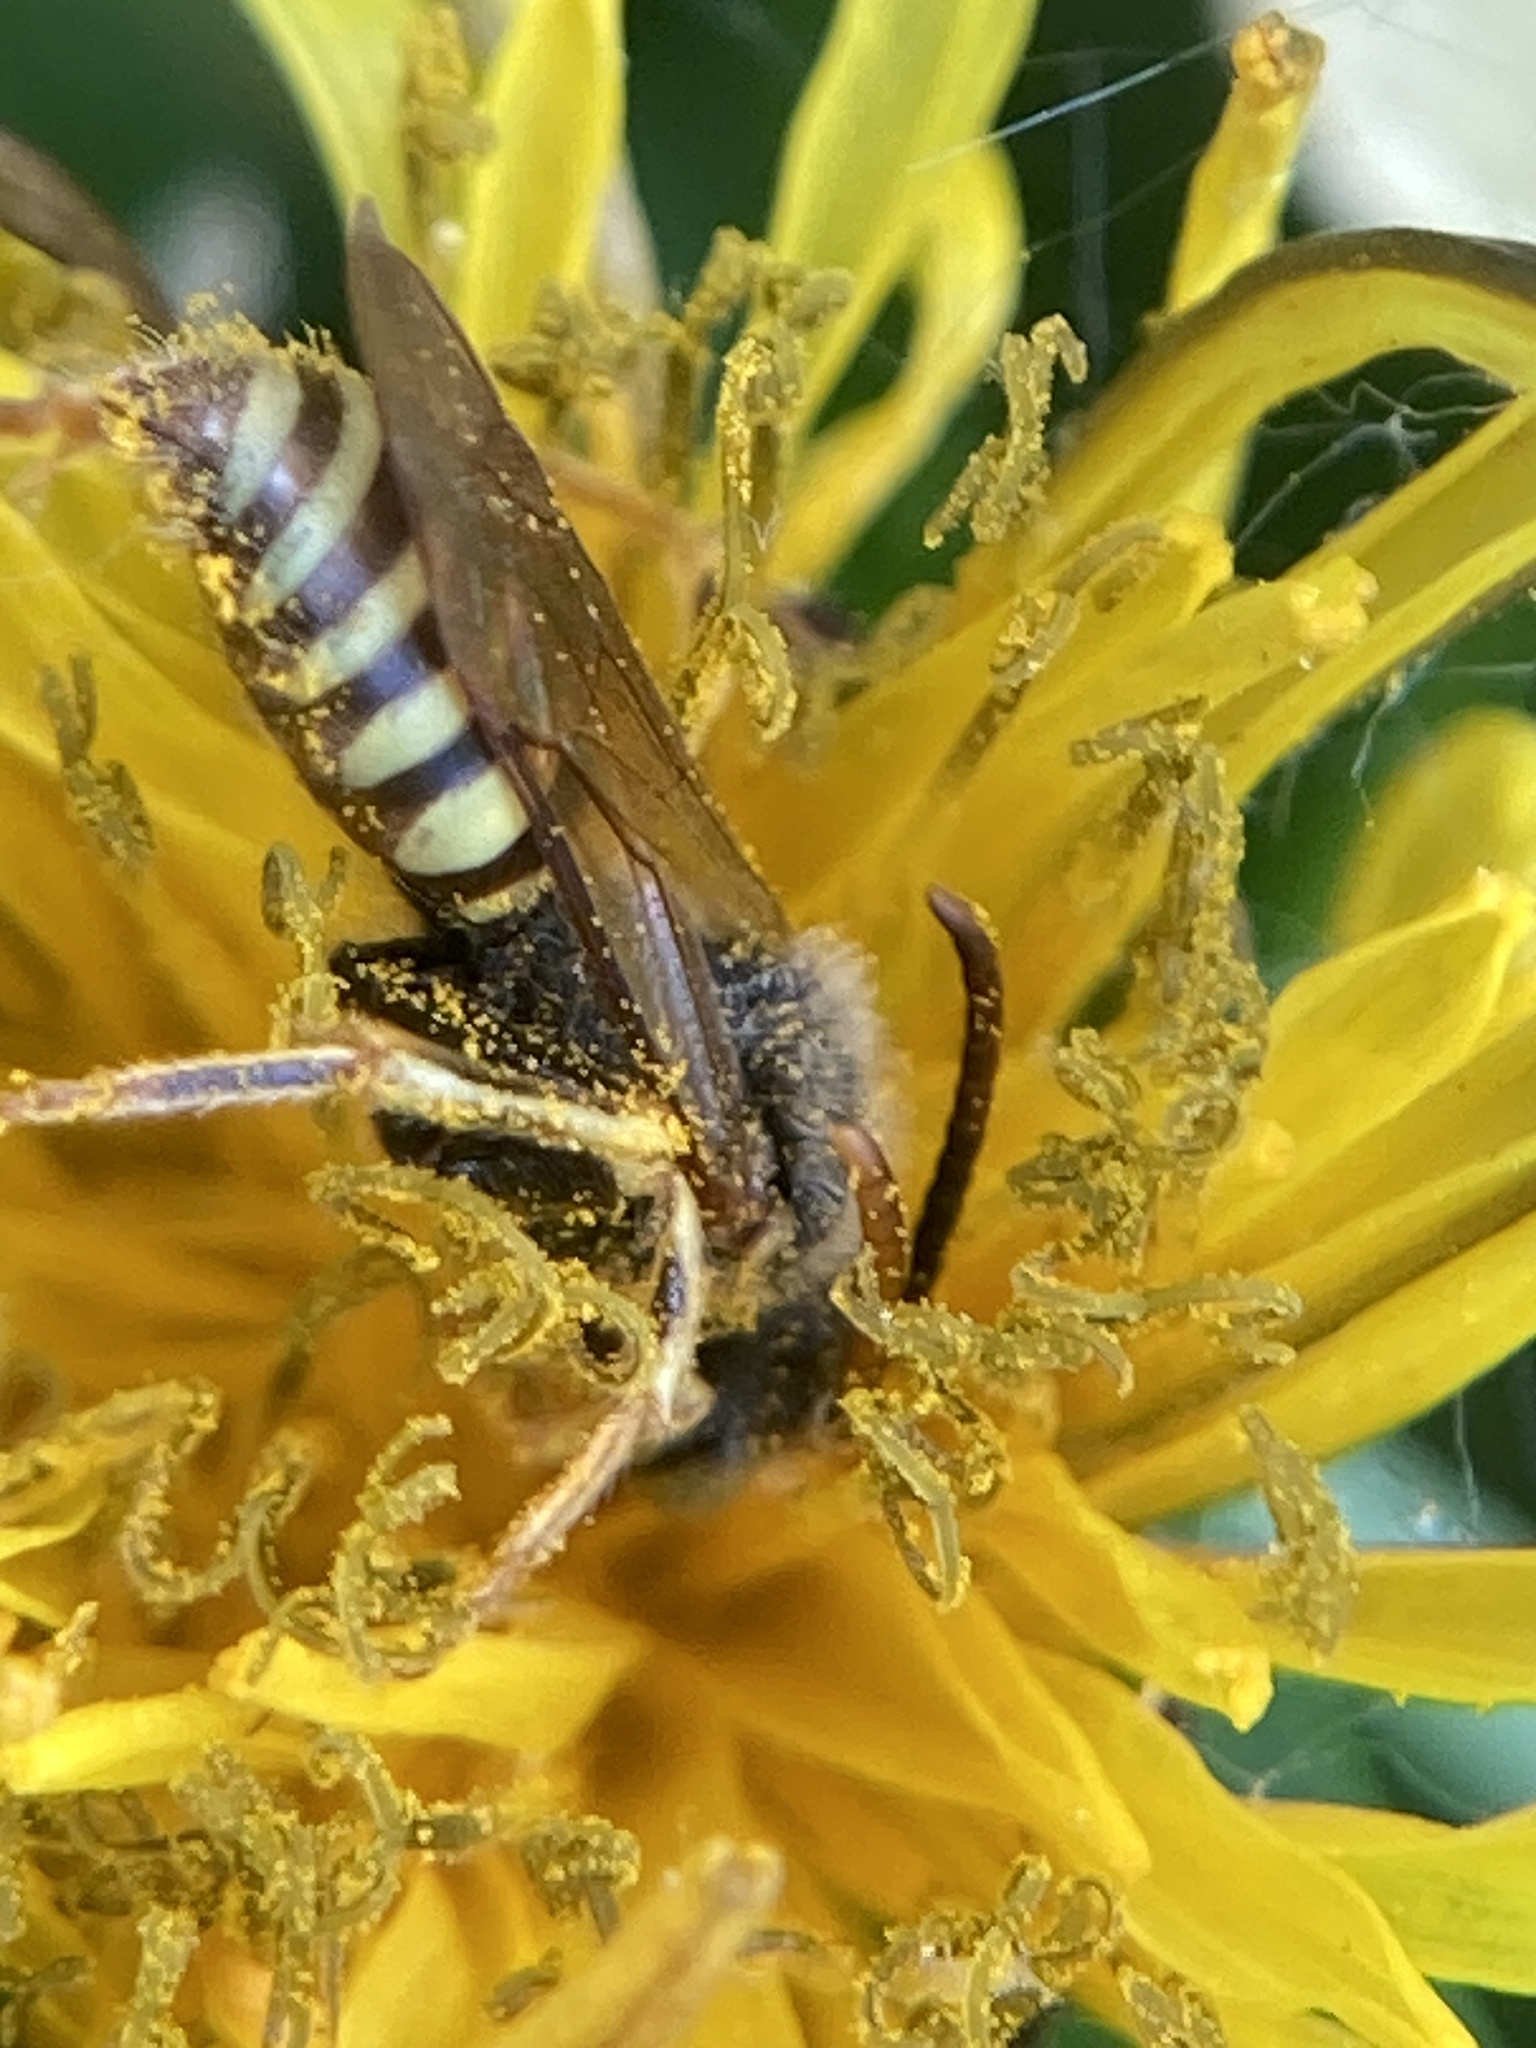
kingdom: Animalia
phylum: Arthropoda
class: Insecta
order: Hymenoptera
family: Apidae
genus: Nomada
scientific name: Nomada luteoloides
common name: Black-and-yellow nomad bee
